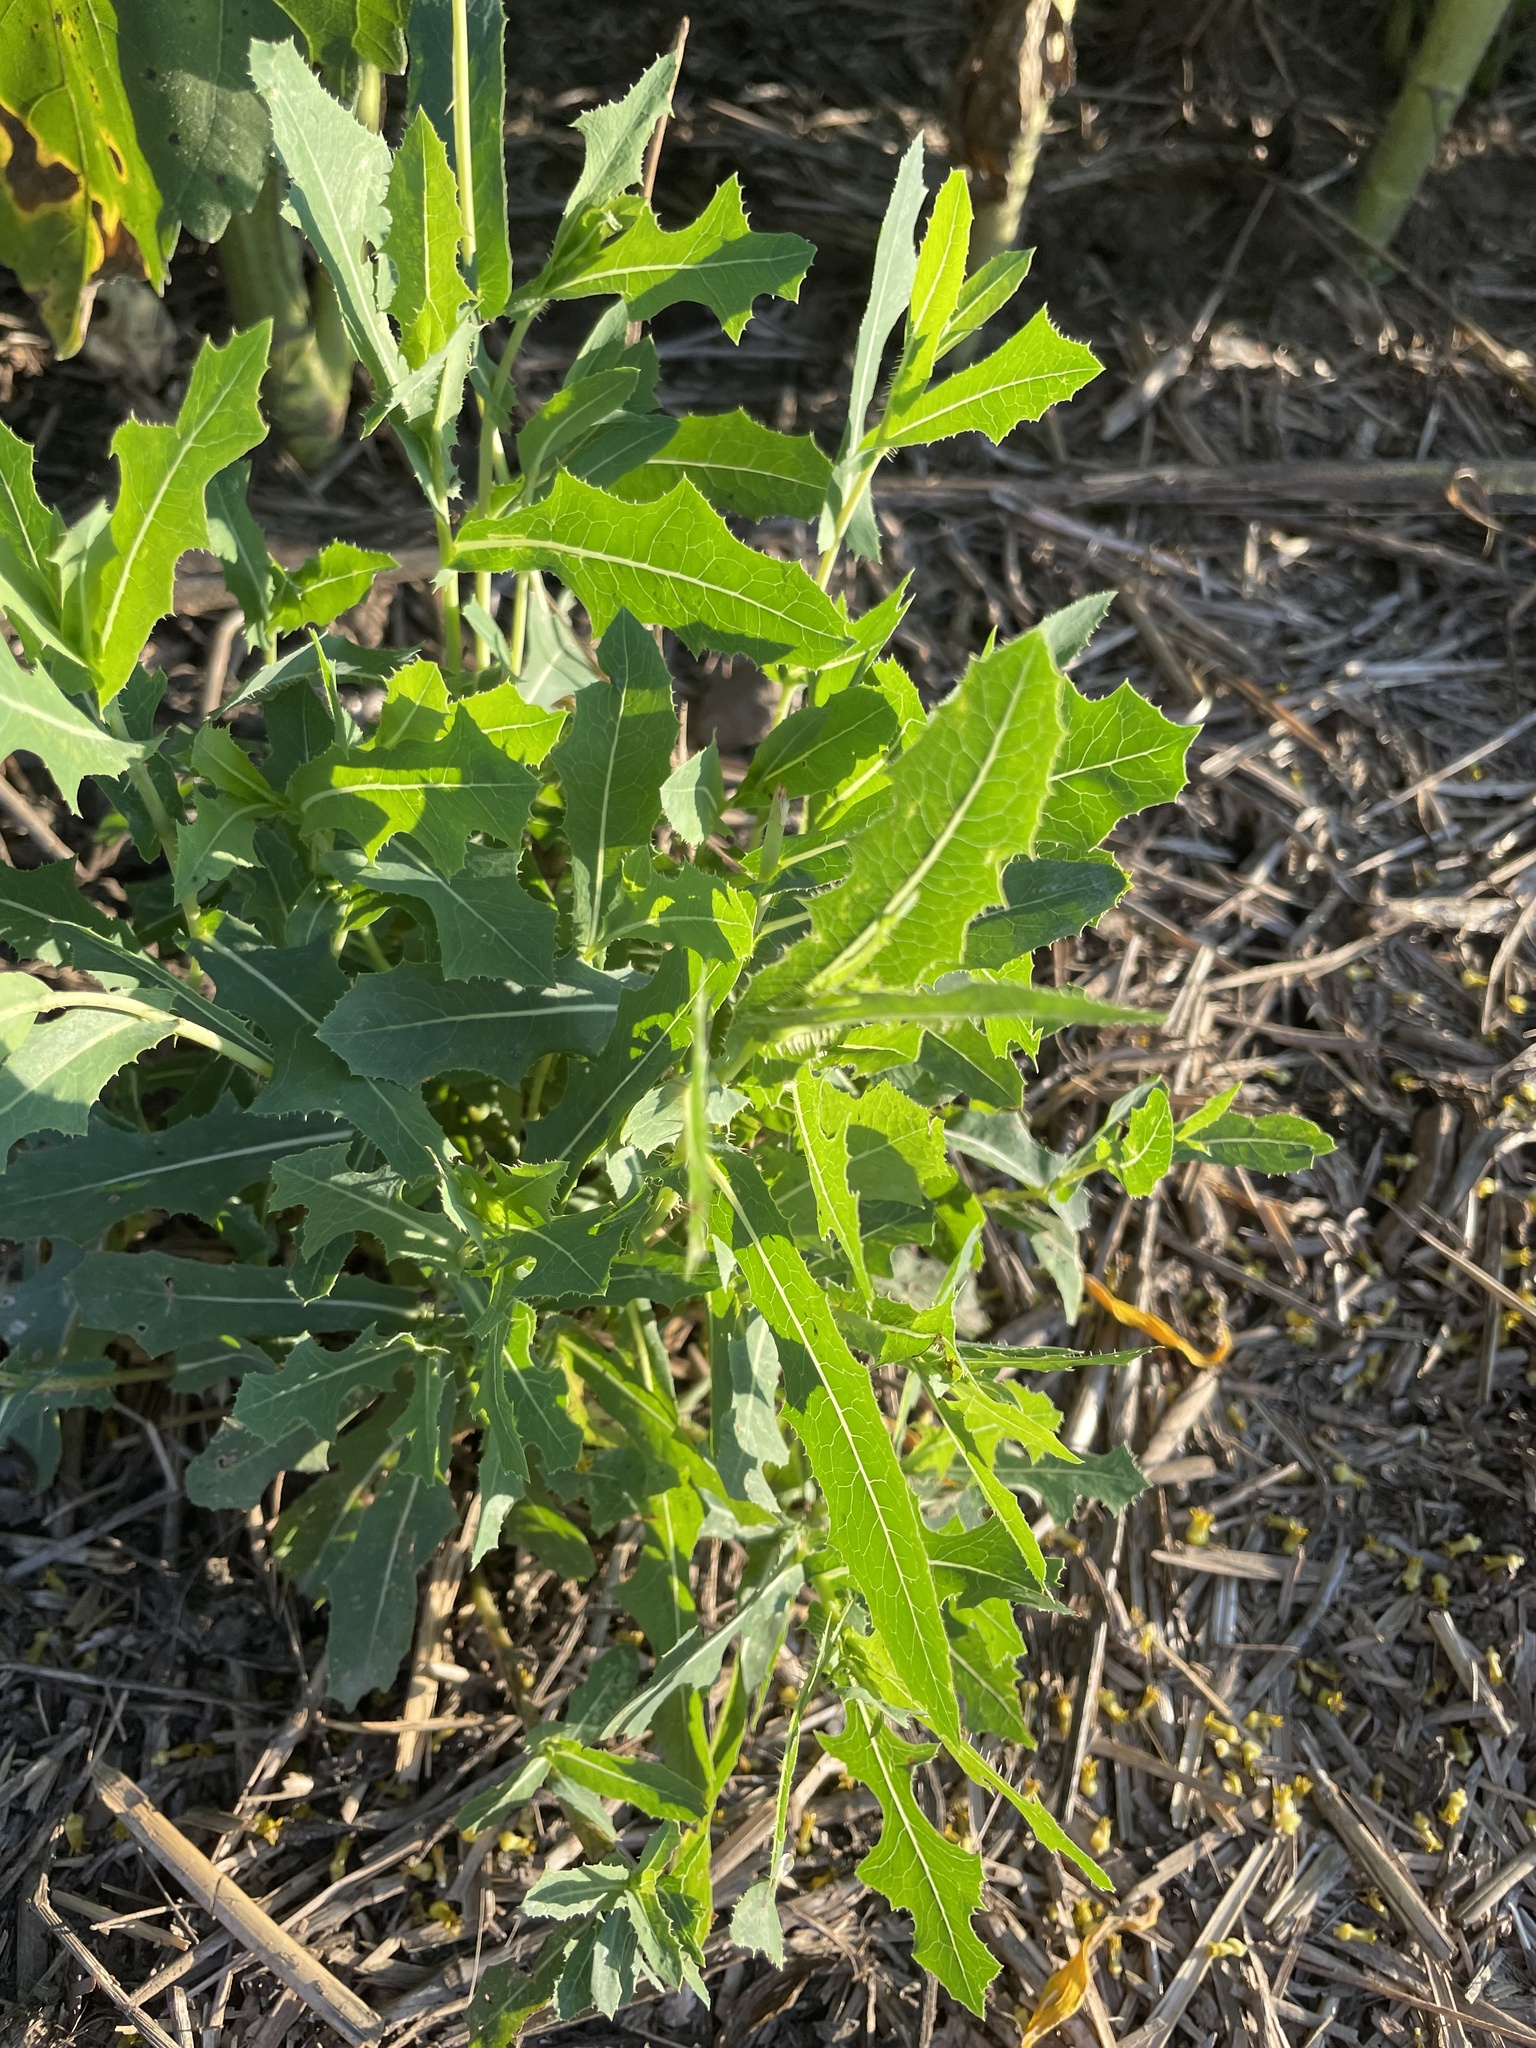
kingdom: Plantae
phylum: Tracheophyta
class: Magnoliopsida
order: Asterales
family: Asteraceae
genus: Lactuca
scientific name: Lactuca serriola
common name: Prickly lettuce
